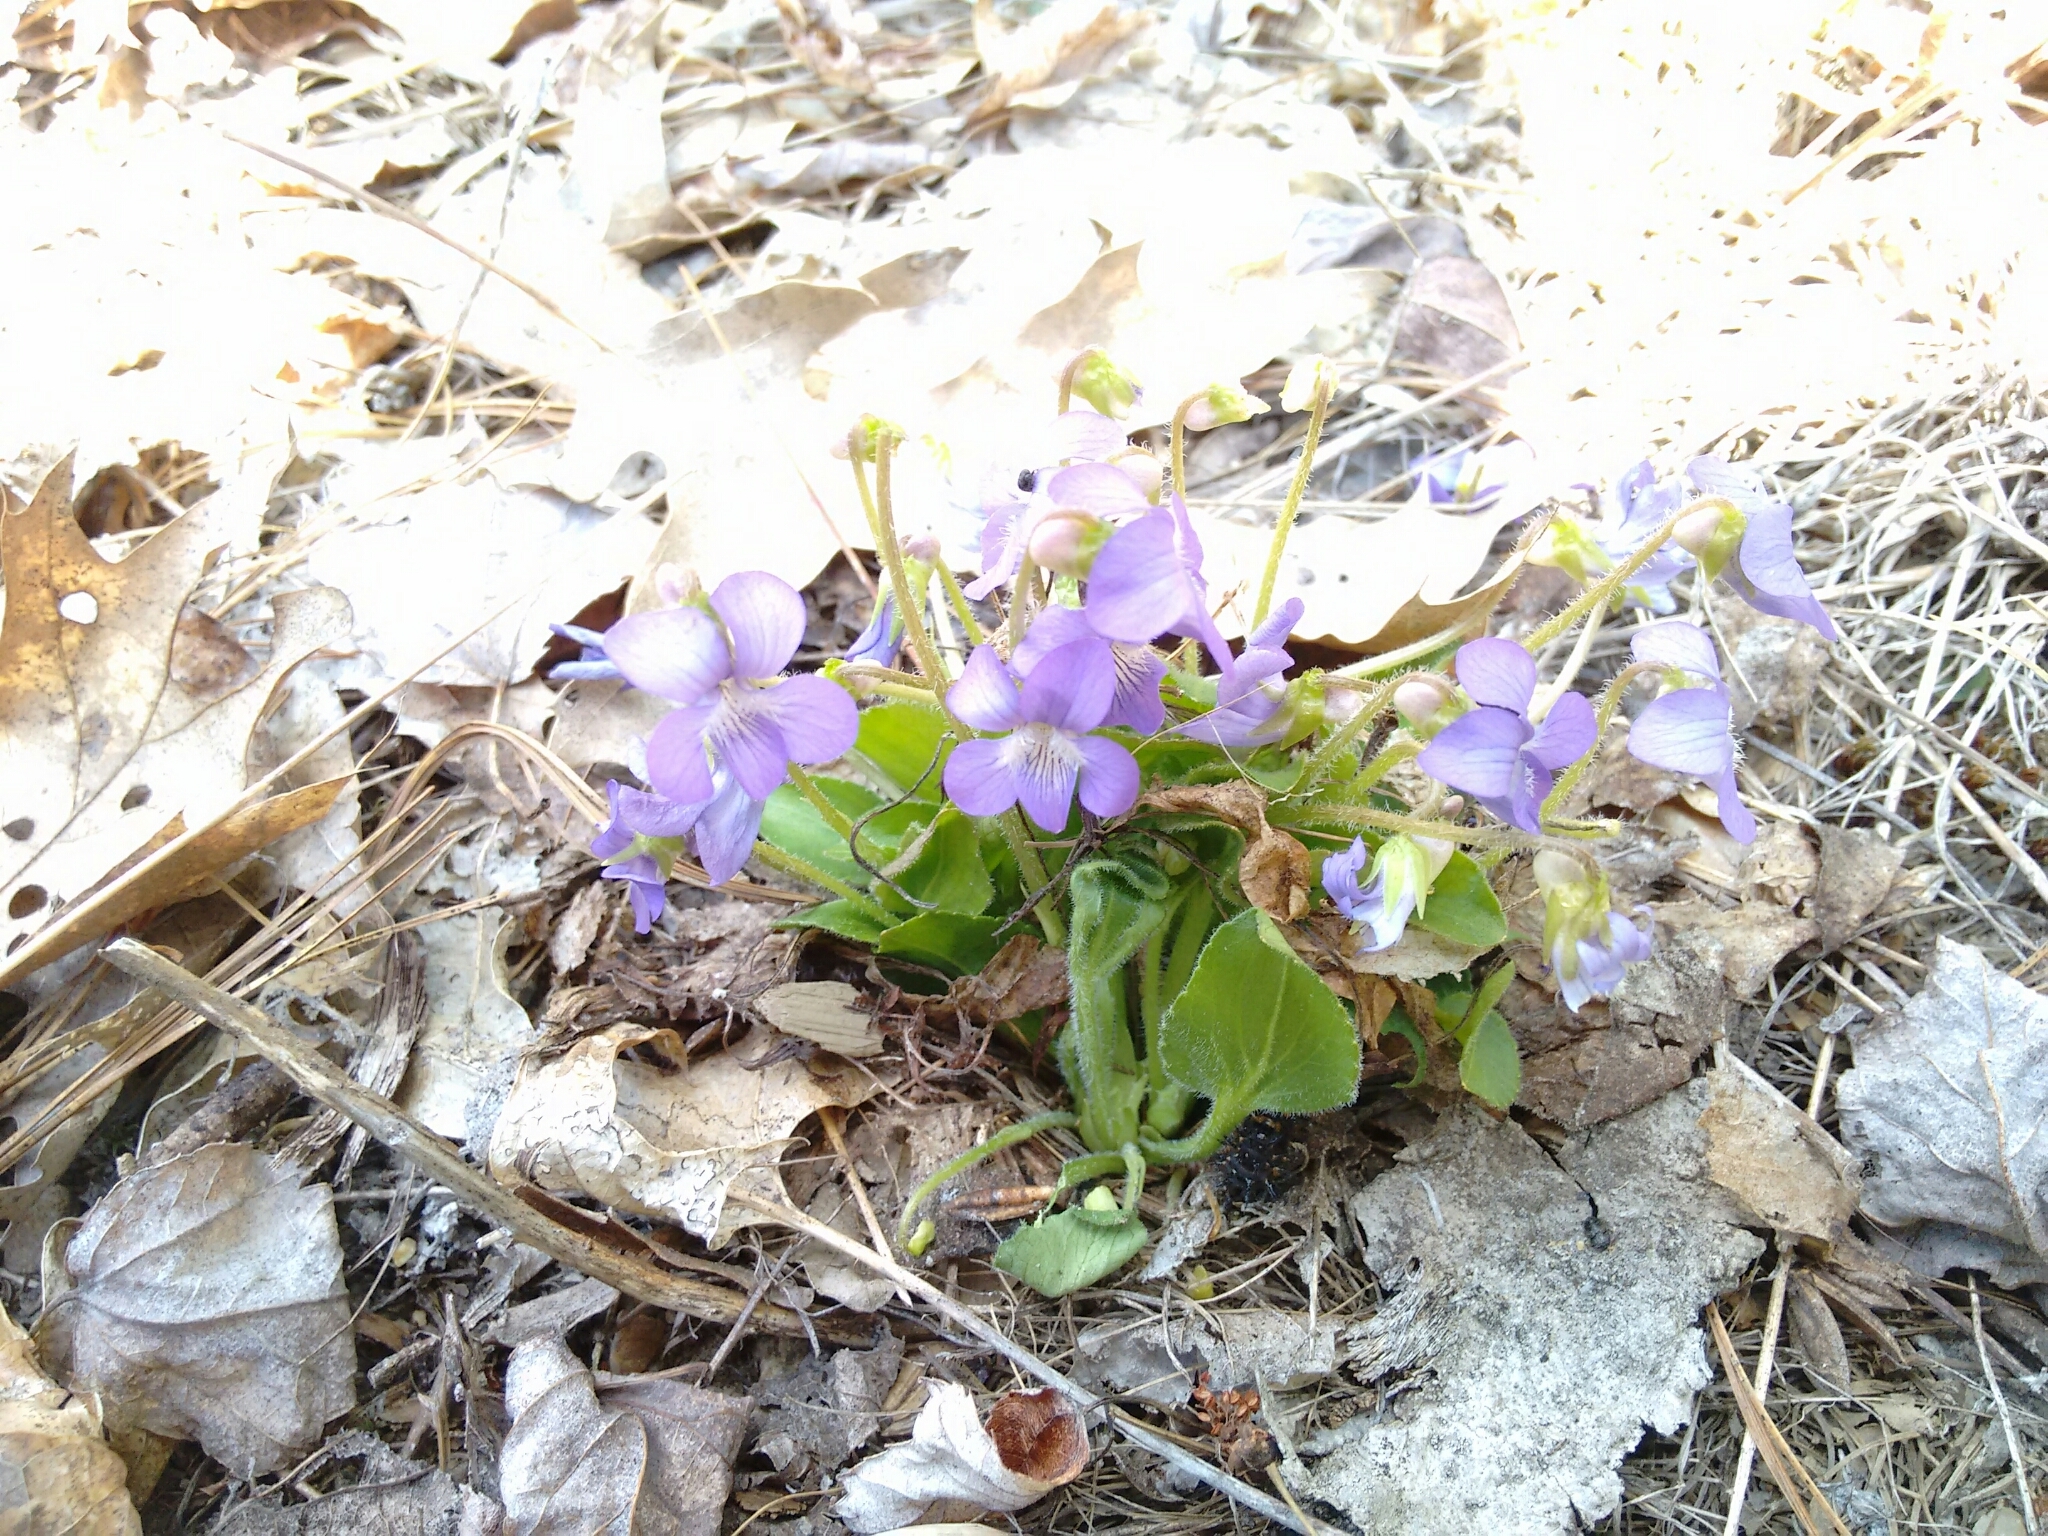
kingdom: Plantae
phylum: Tracheophyta
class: Magnoliopsida
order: Malpighiales
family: Violaceae
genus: Viola
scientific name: Viola sororia
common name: Dooryard violet
